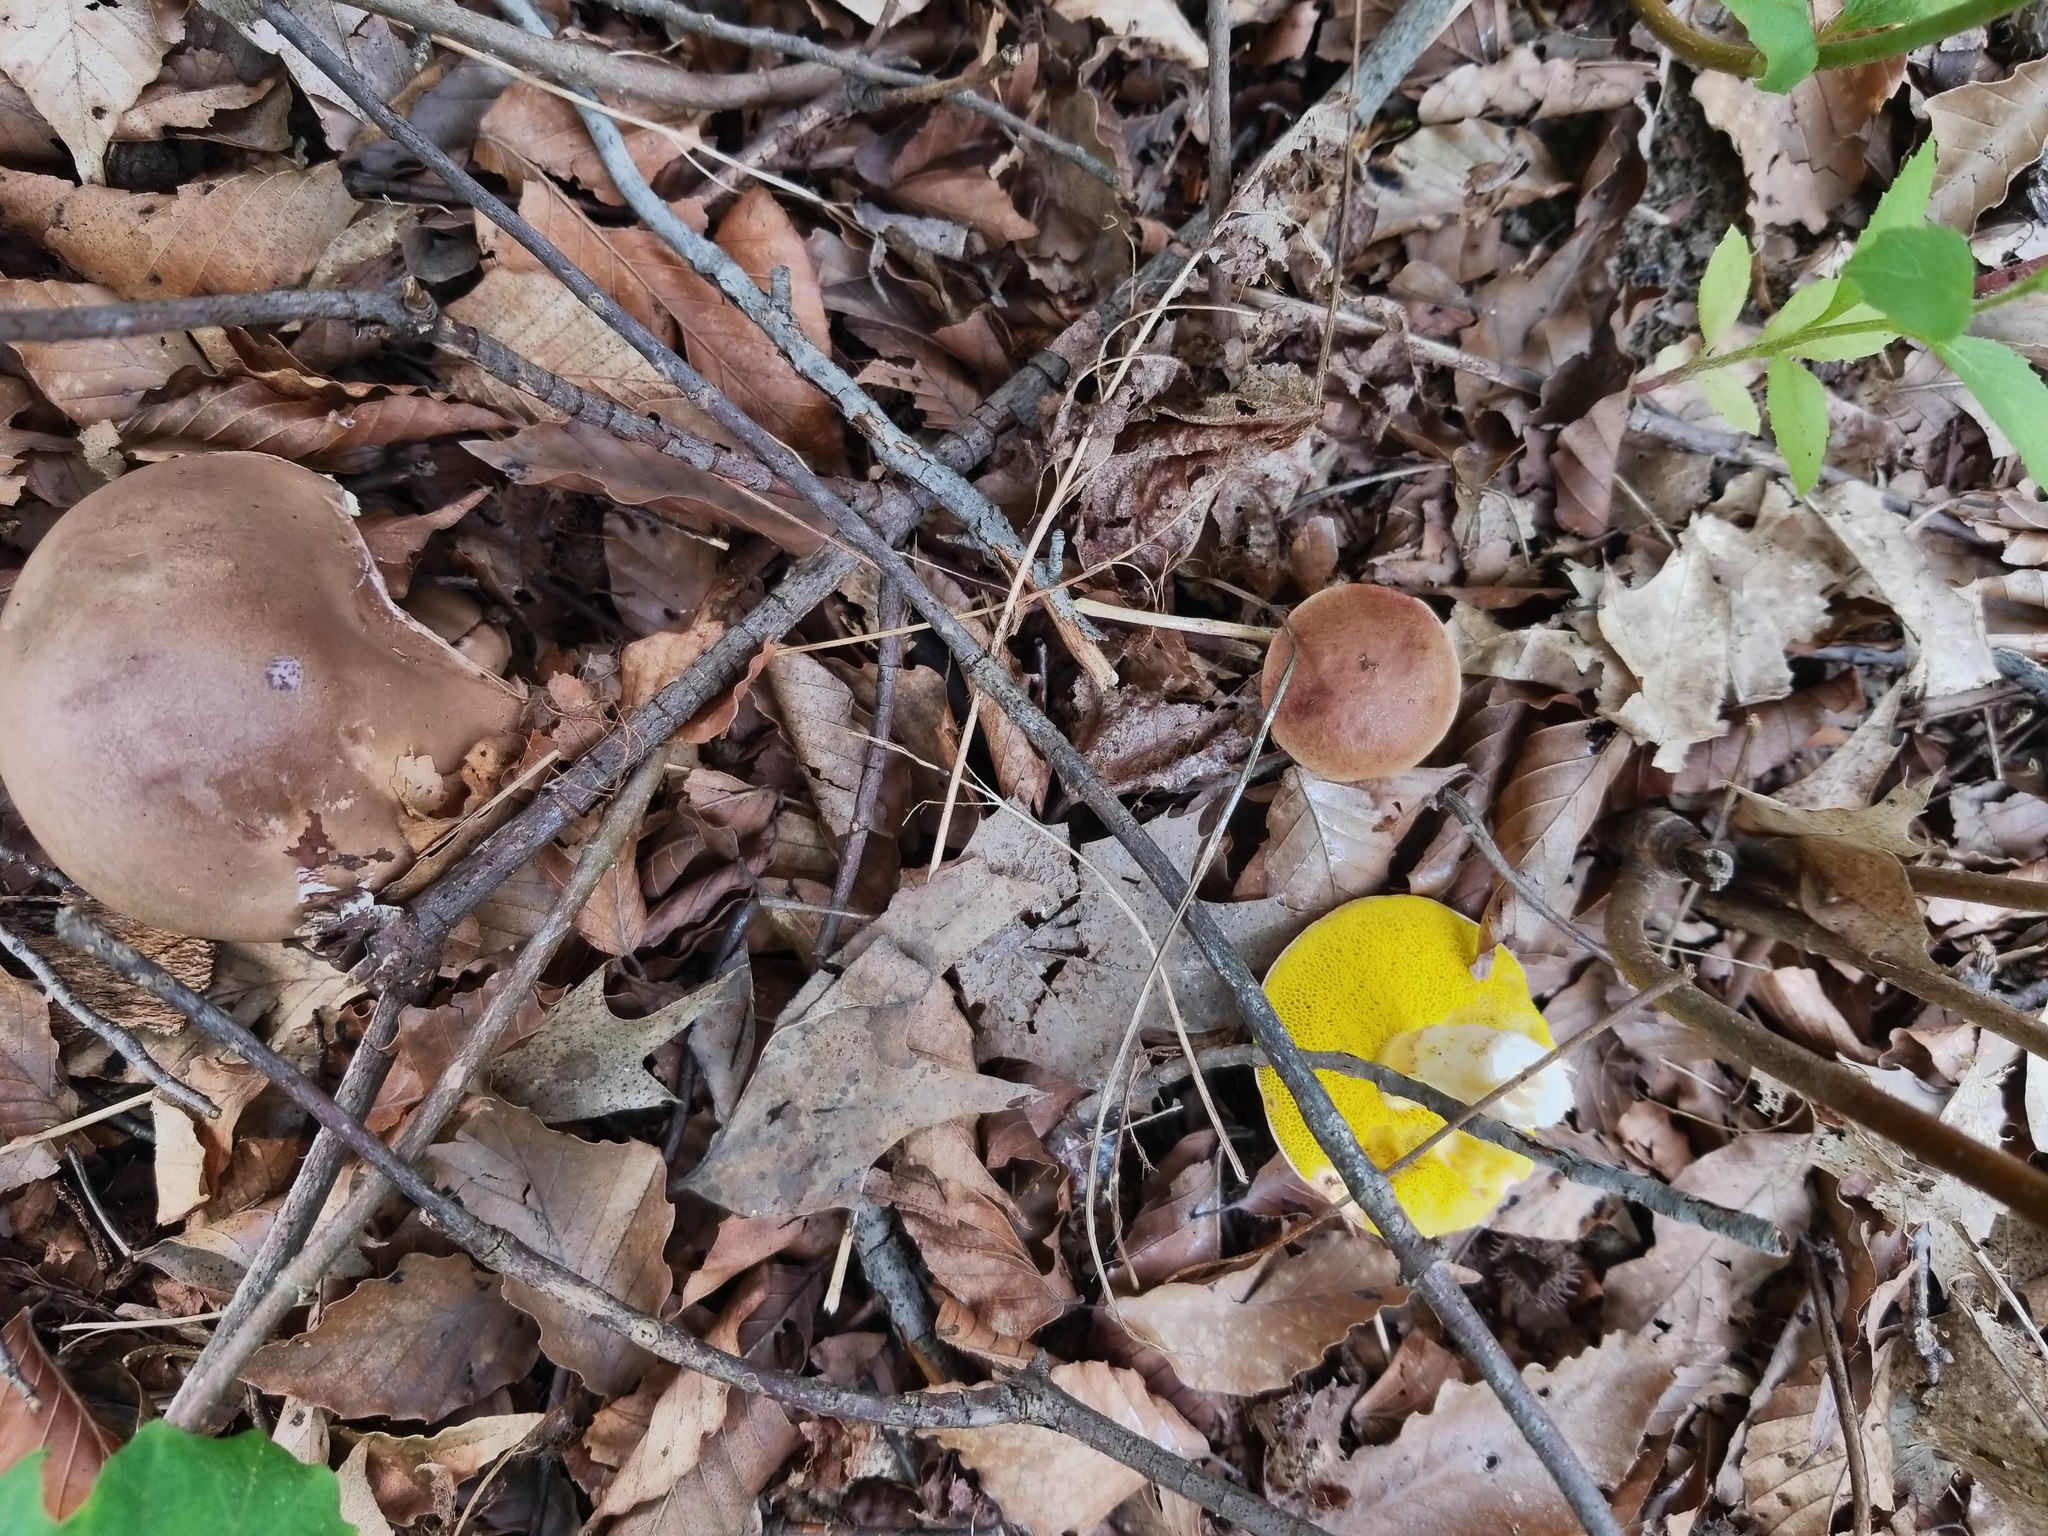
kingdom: Fungi
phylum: Basidiomycota
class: Agaricomycetes
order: Boletales
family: Boletaceae
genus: Aureoboletus
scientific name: Aureoboletus innixus
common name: Clustered brown bolete
